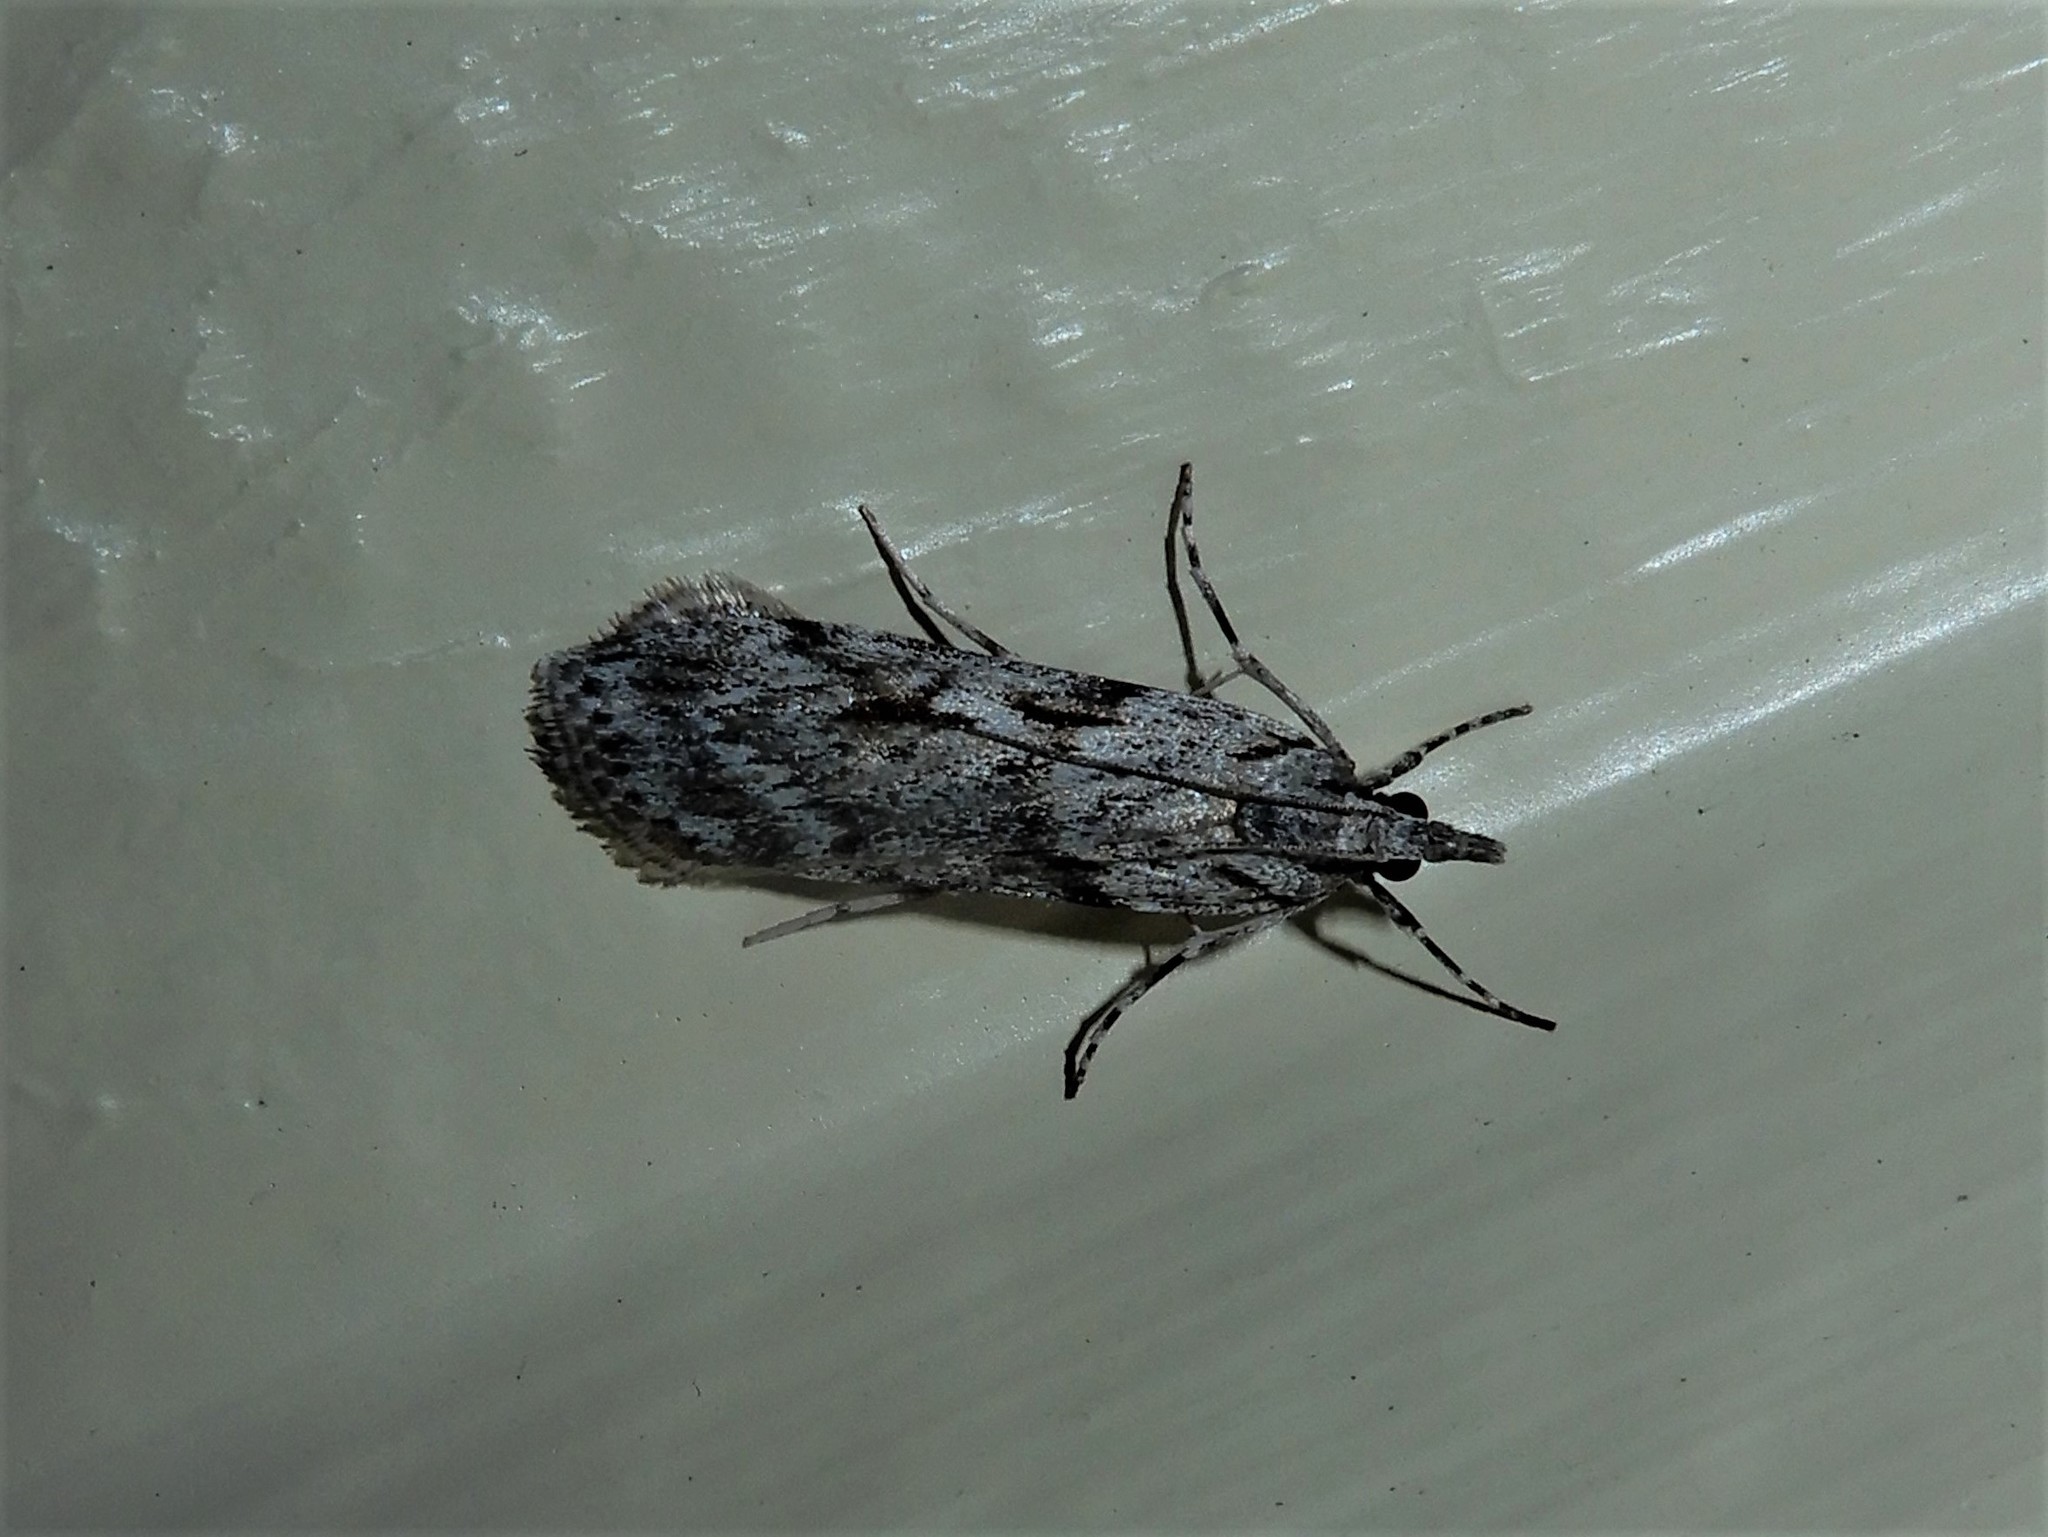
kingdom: Animalia
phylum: Arthropoda
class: Insecta
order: Lepidoptera
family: Crambidae
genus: Scoparia
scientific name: Scoparia halopis
